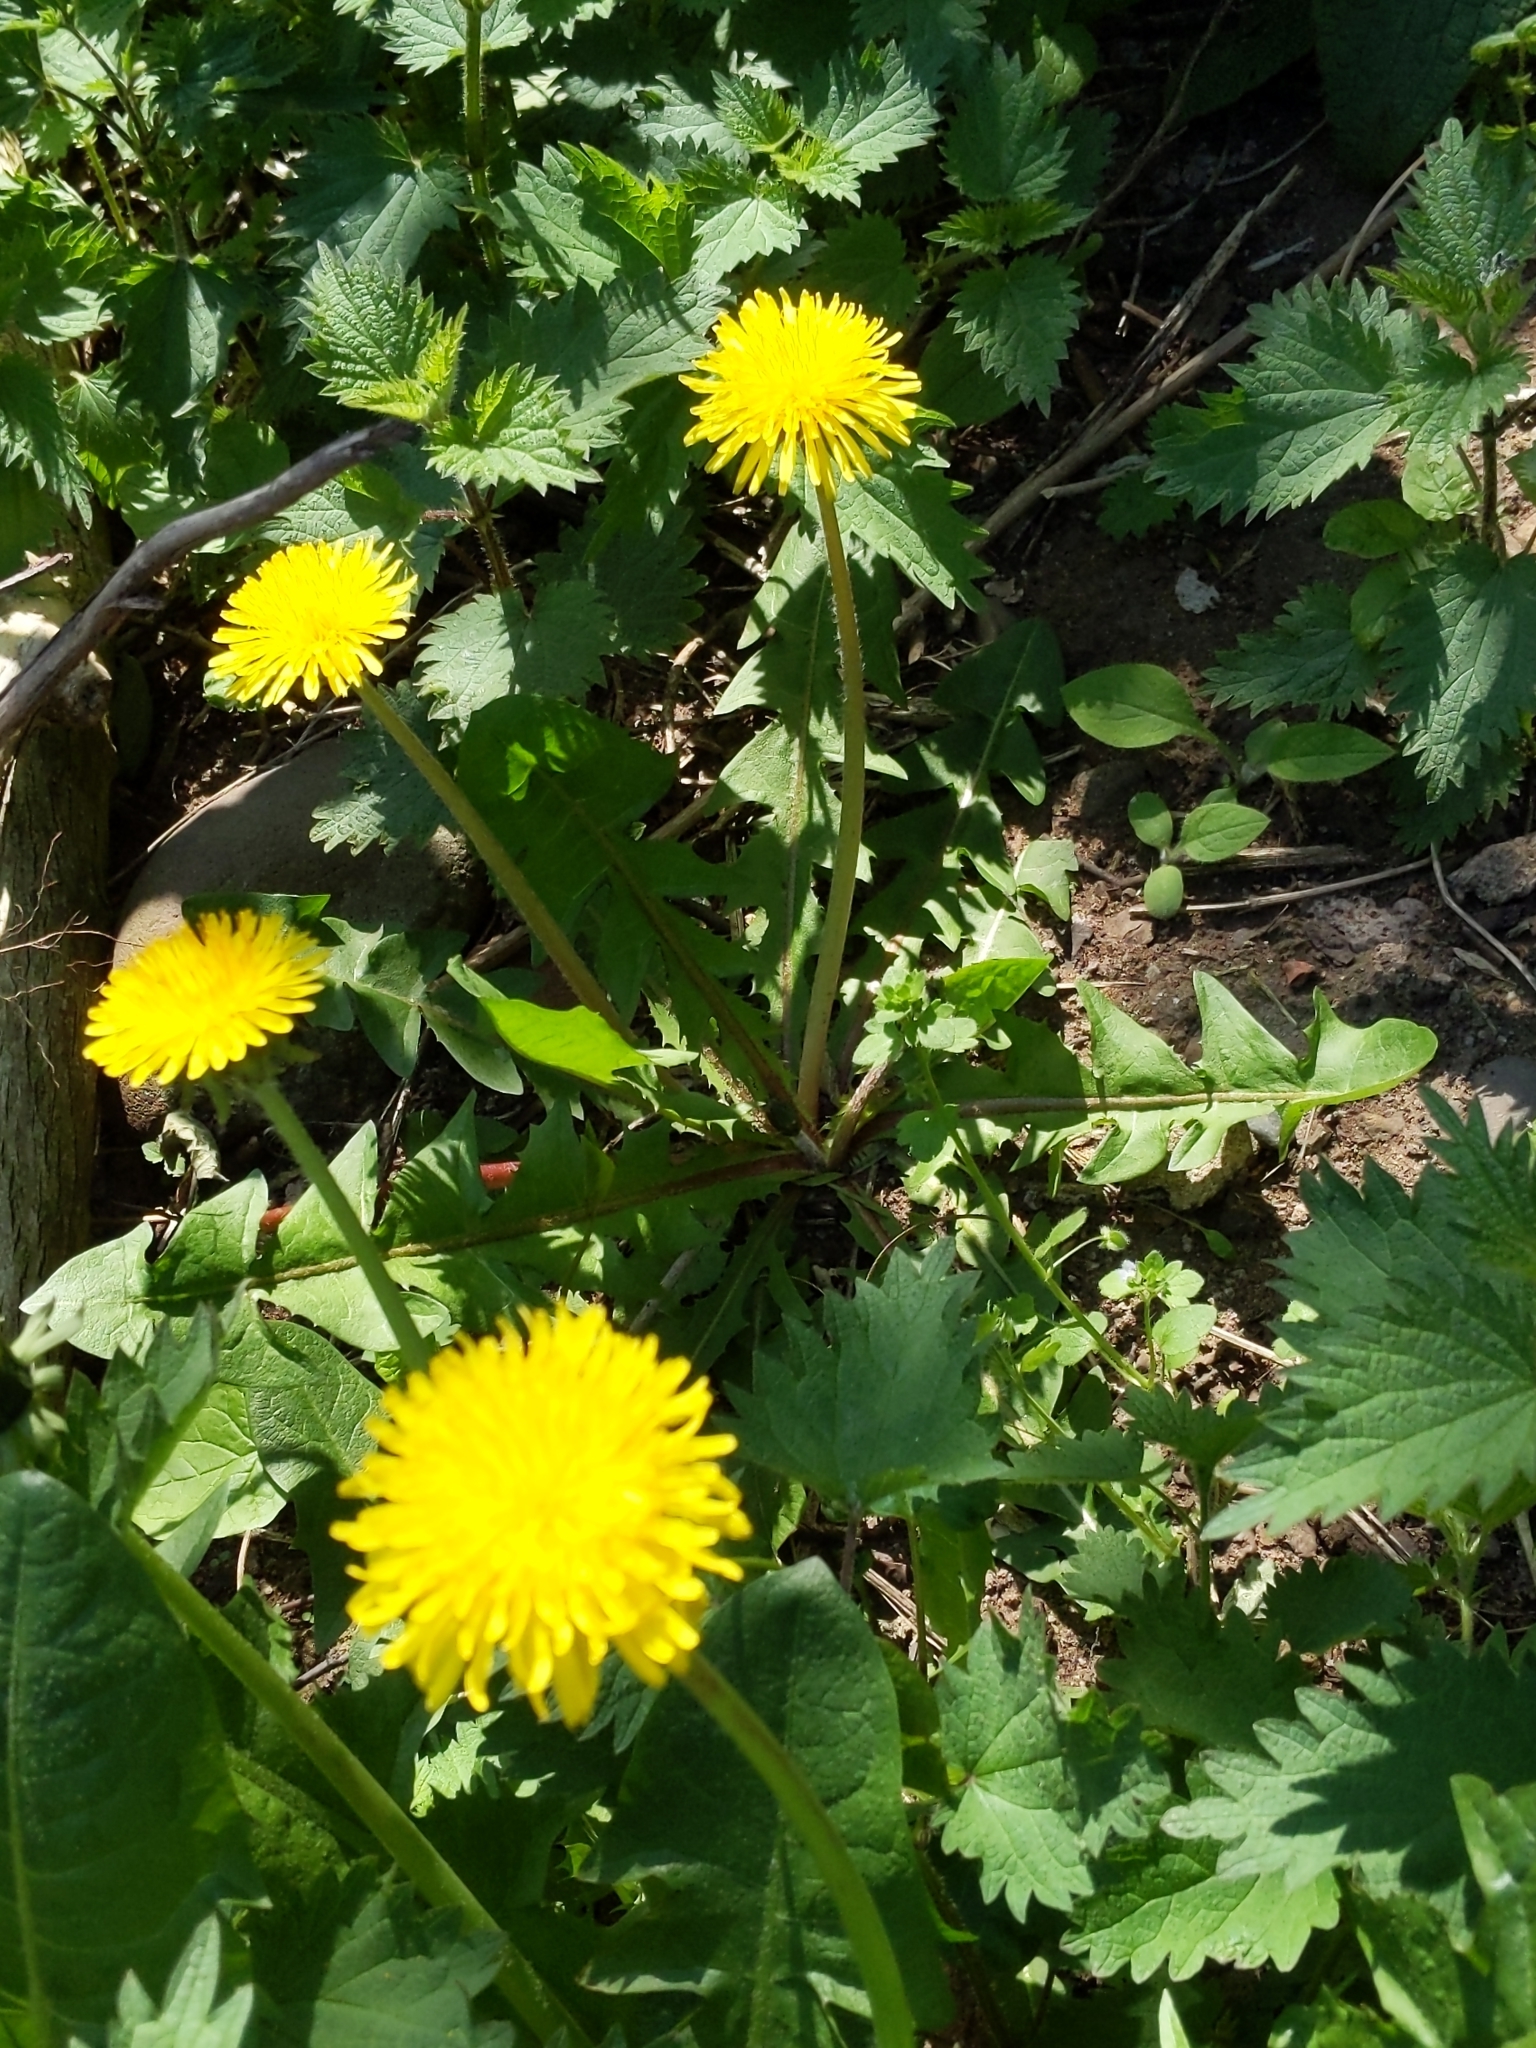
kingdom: Plantae
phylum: Tracheophyta
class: Magnoliopsida
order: Asterales
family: Asteraceae
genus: Taraxacum
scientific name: Taraxacum officinale
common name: Common dandelion
